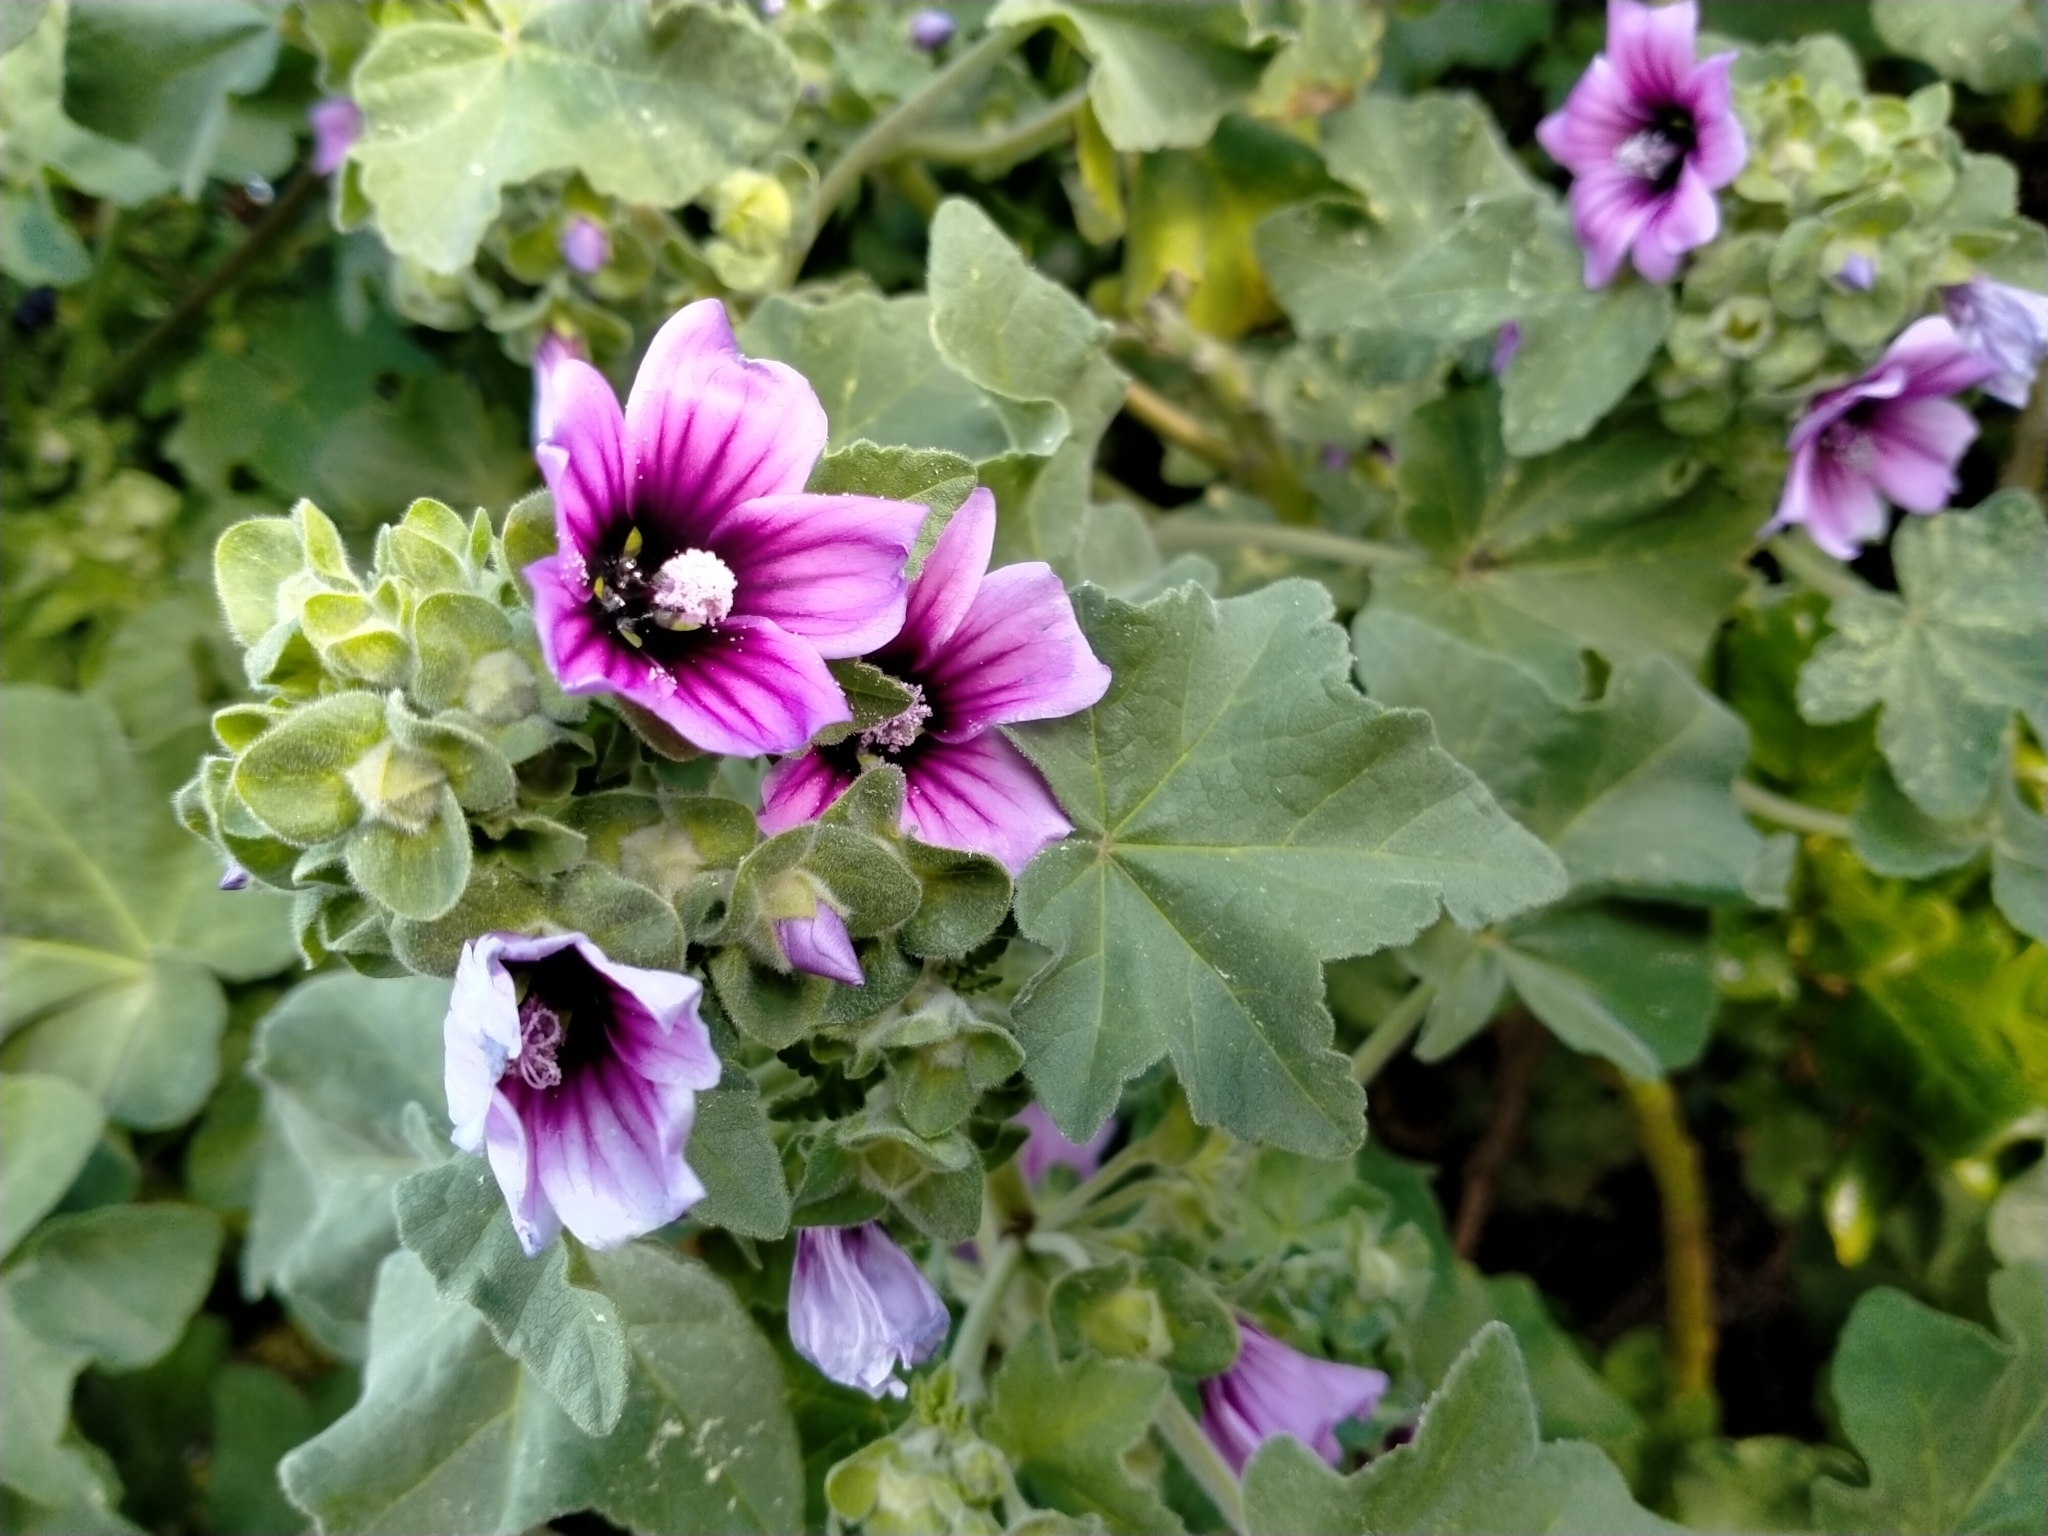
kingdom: Plantae
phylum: Tracheophyta
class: Magnoliopsida
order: Malvales
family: Malvaceae
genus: Malva
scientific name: Malva arborea
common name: Tree mallow
